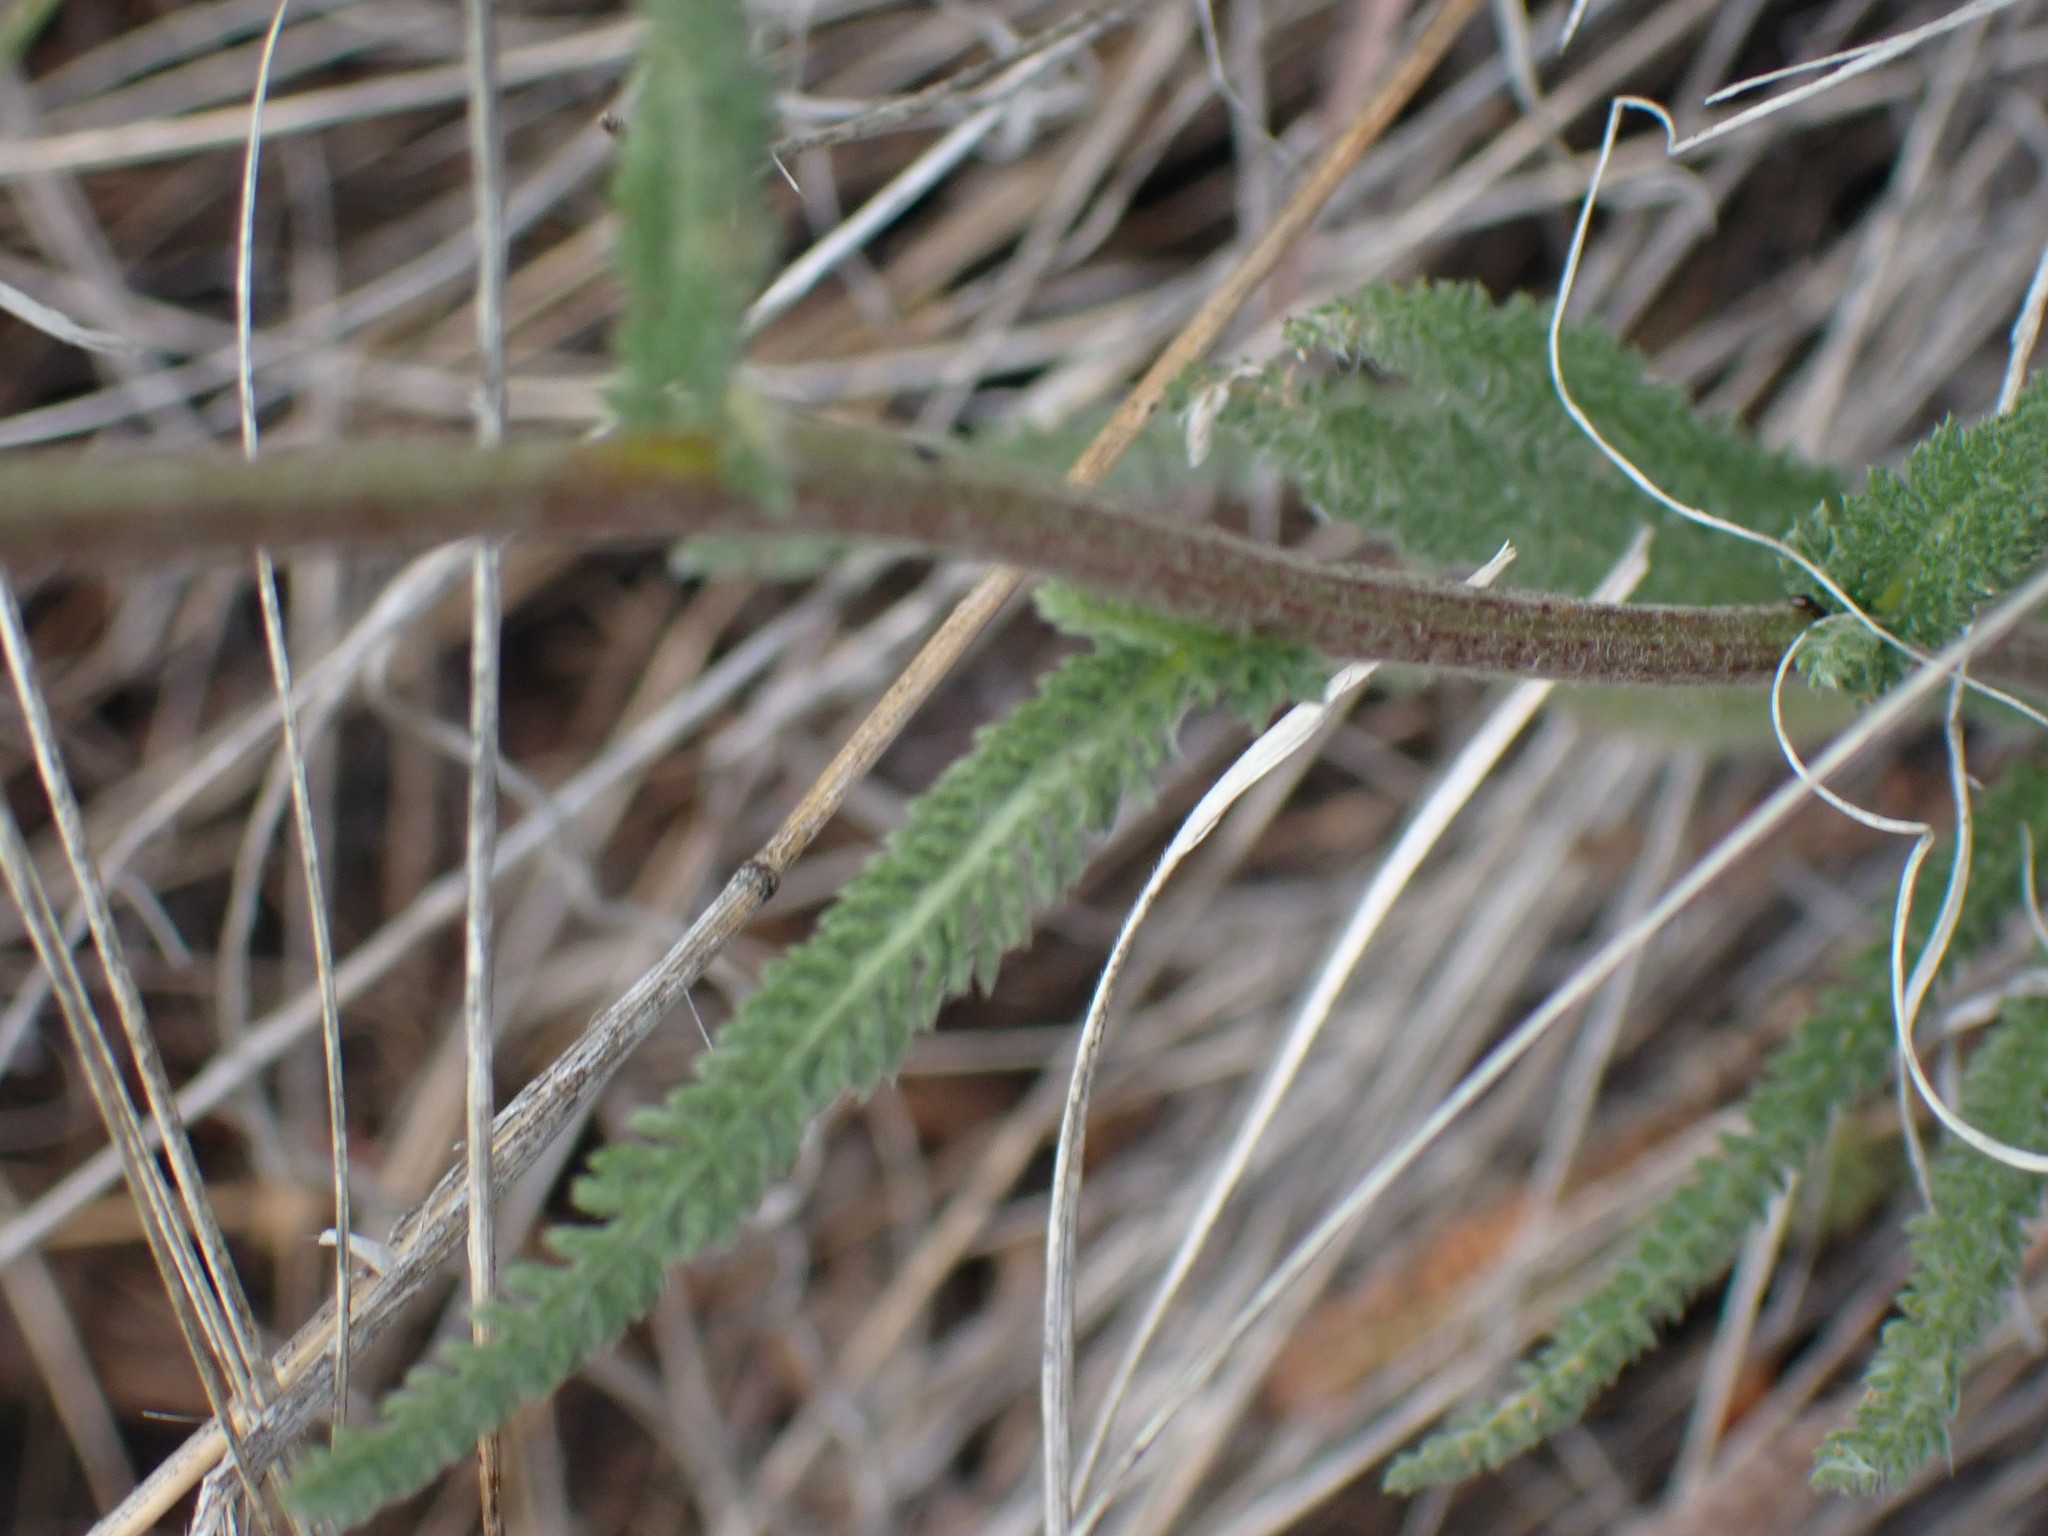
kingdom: Plantae
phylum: Tracheophyta
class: Magnoliopsida
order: Asterales
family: Asteraceae
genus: Achillea
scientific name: Achillea millefolium
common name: Yarrow
